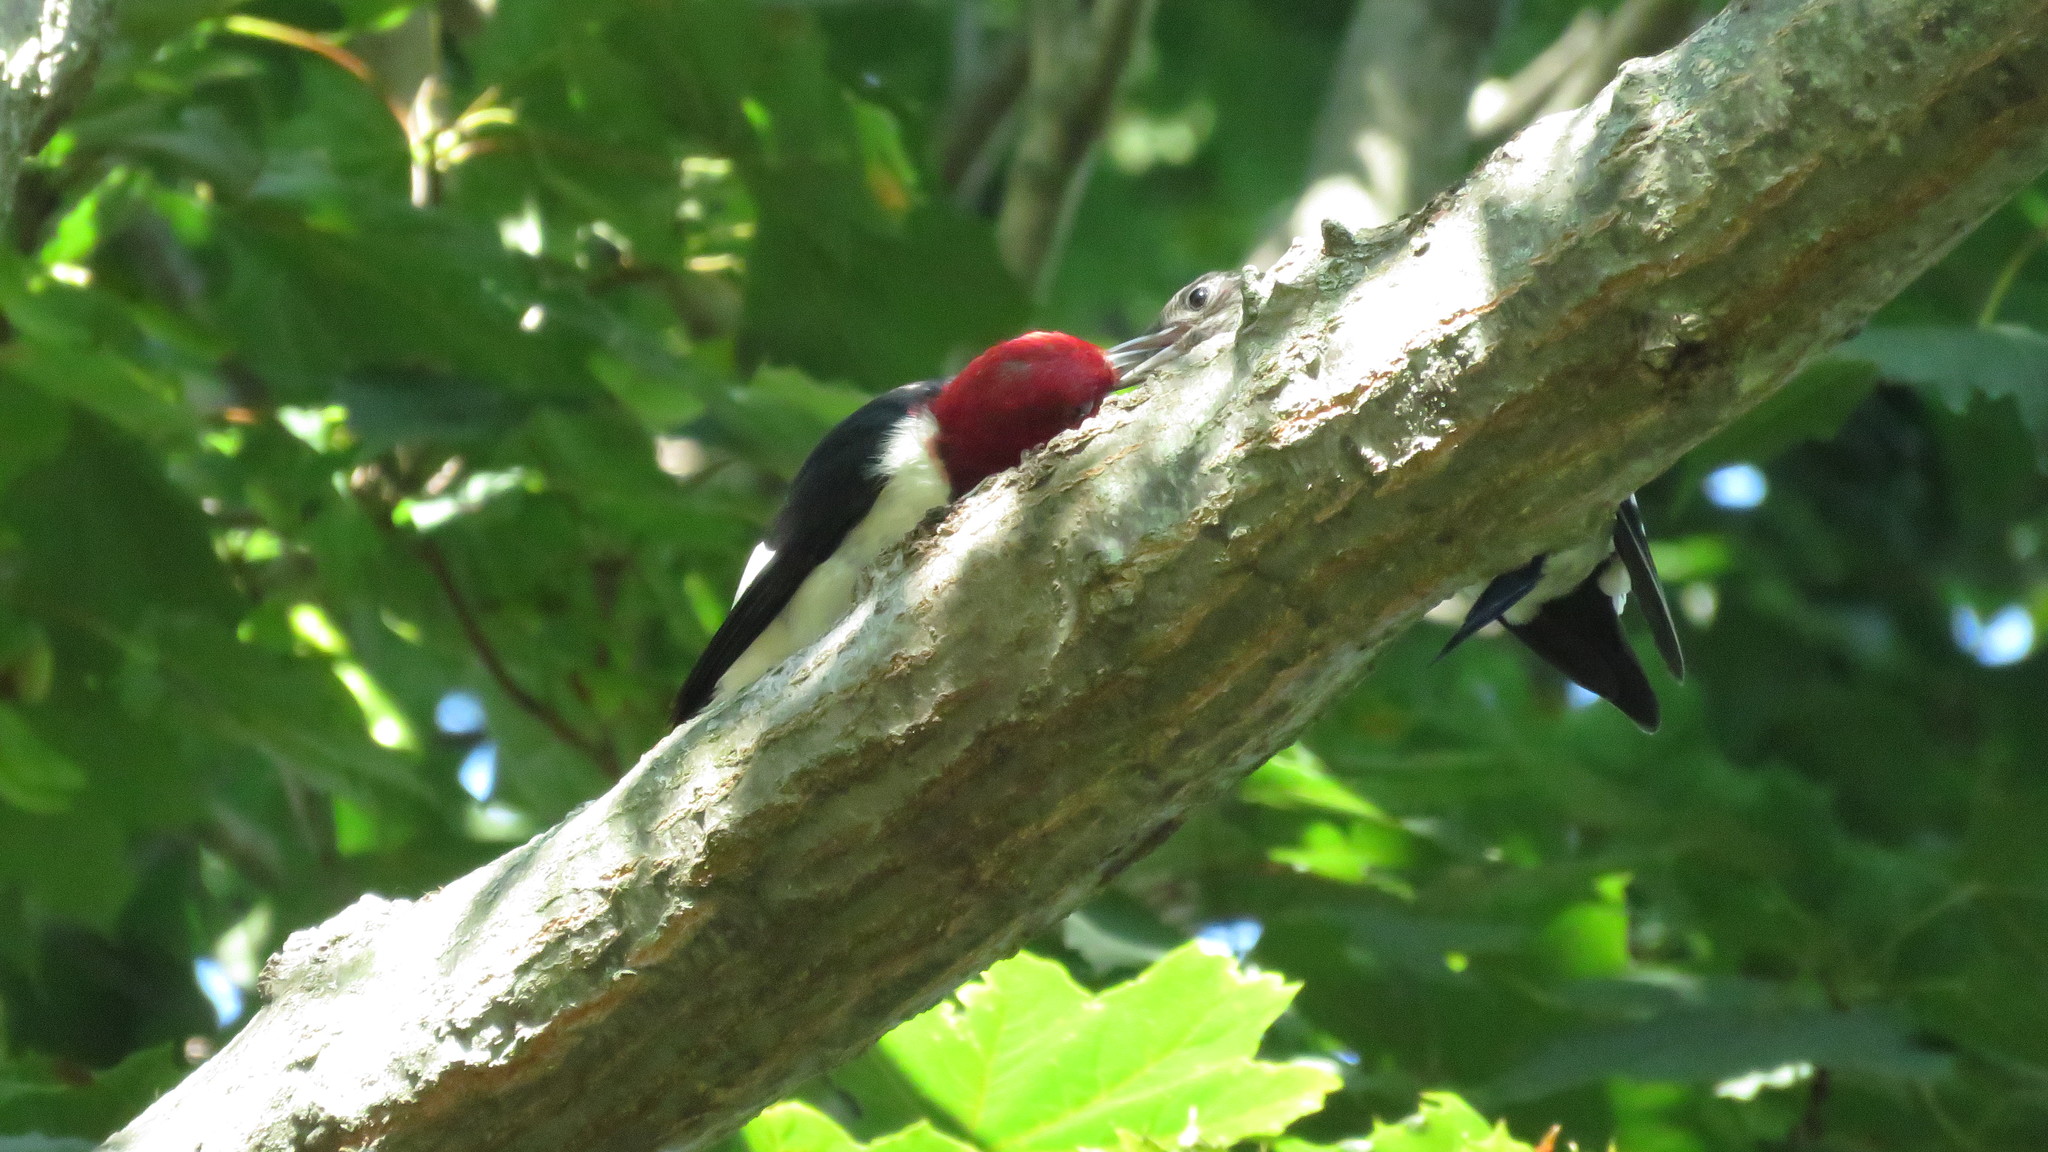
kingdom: Animalia
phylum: Chordata
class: Aves
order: Piciformes
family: Picidae
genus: Melanerpes
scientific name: Melanerpes erythrocephalus
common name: Red-headed woodpecker
